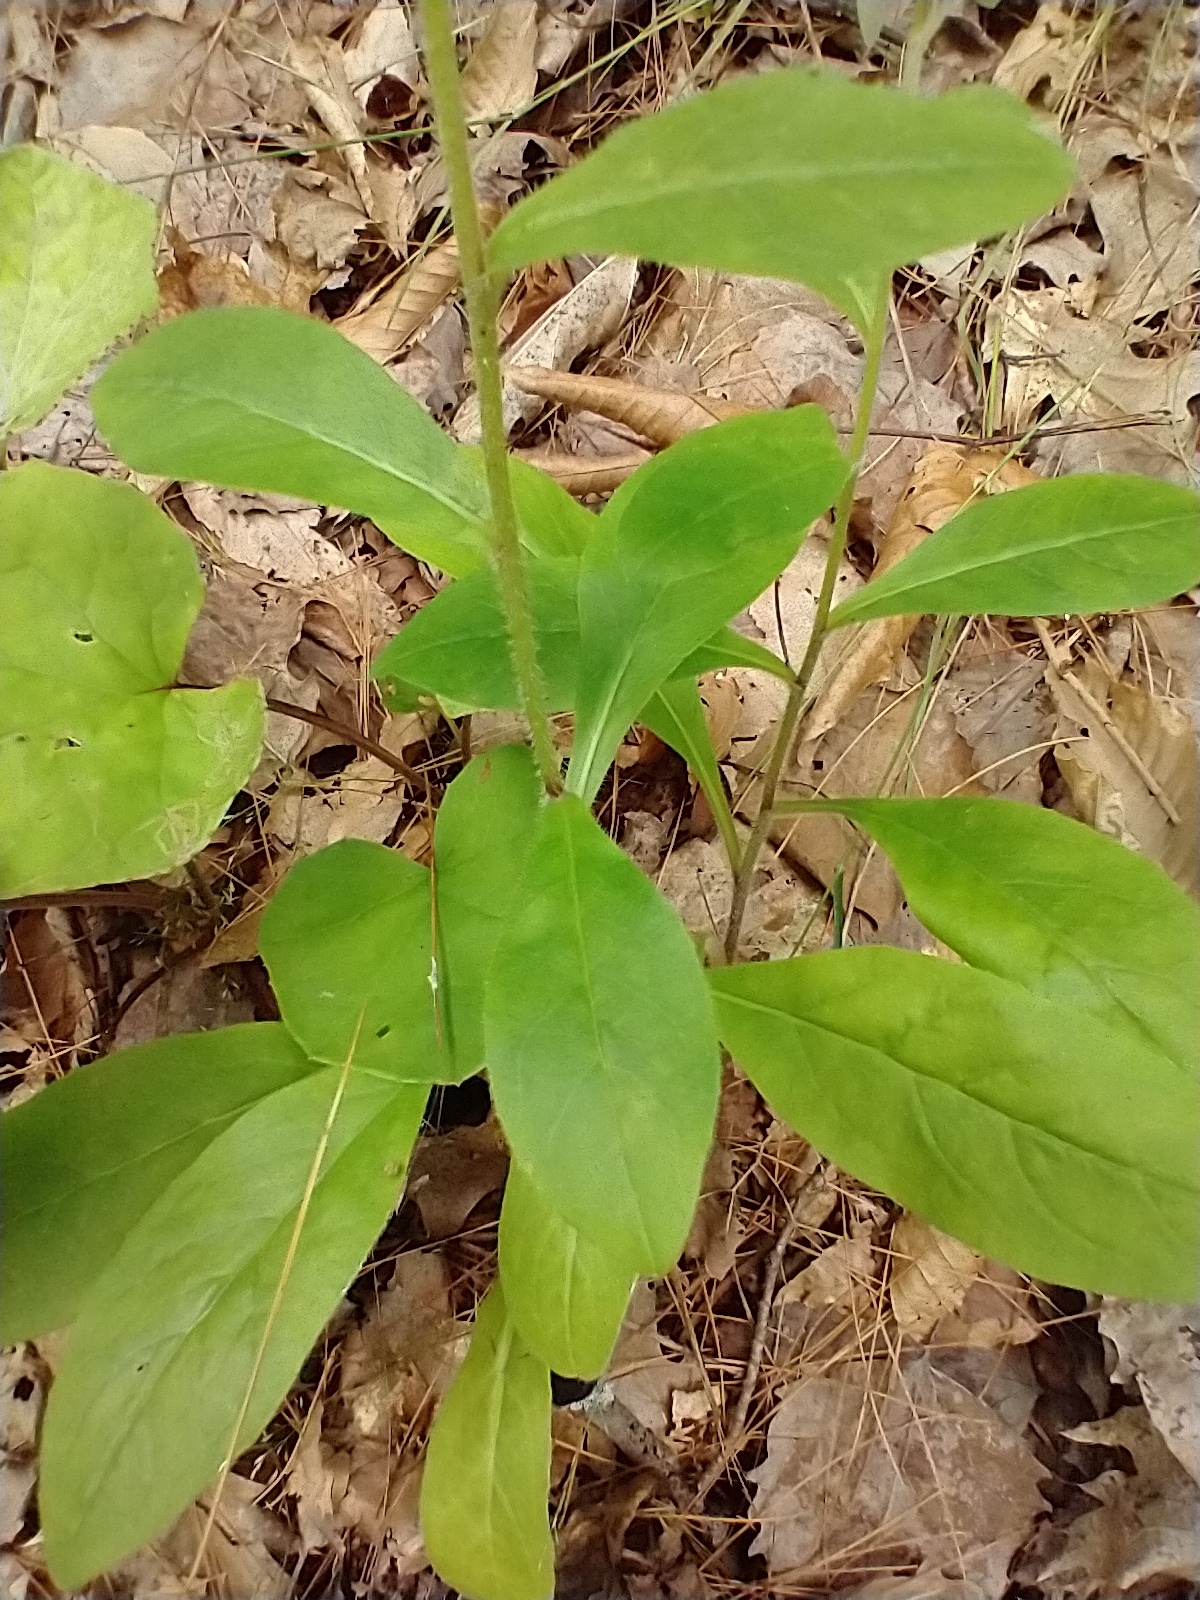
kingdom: Plantae
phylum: Tracheophyta
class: Magnoliopsida
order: Asterales
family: Asteraceae
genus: Hieracium
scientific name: Hieracium scabrum
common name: Rough hawkweed
